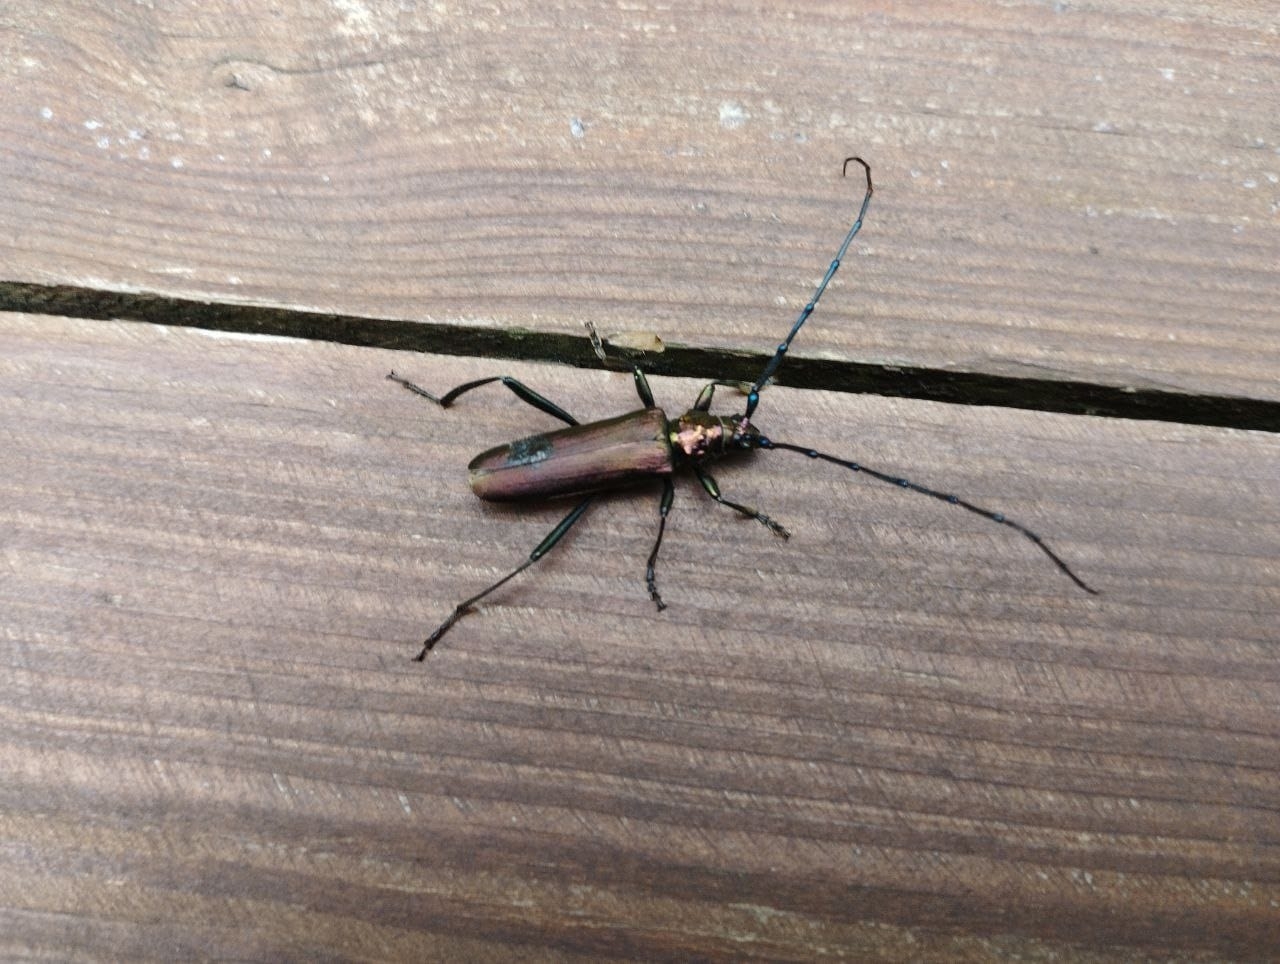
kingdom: Animalia
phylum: Arthropoda
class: Insecta
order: Coleoptera
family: Cerambycidae
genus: Aromia
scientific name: Aromia moschata
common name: Musk beetle
